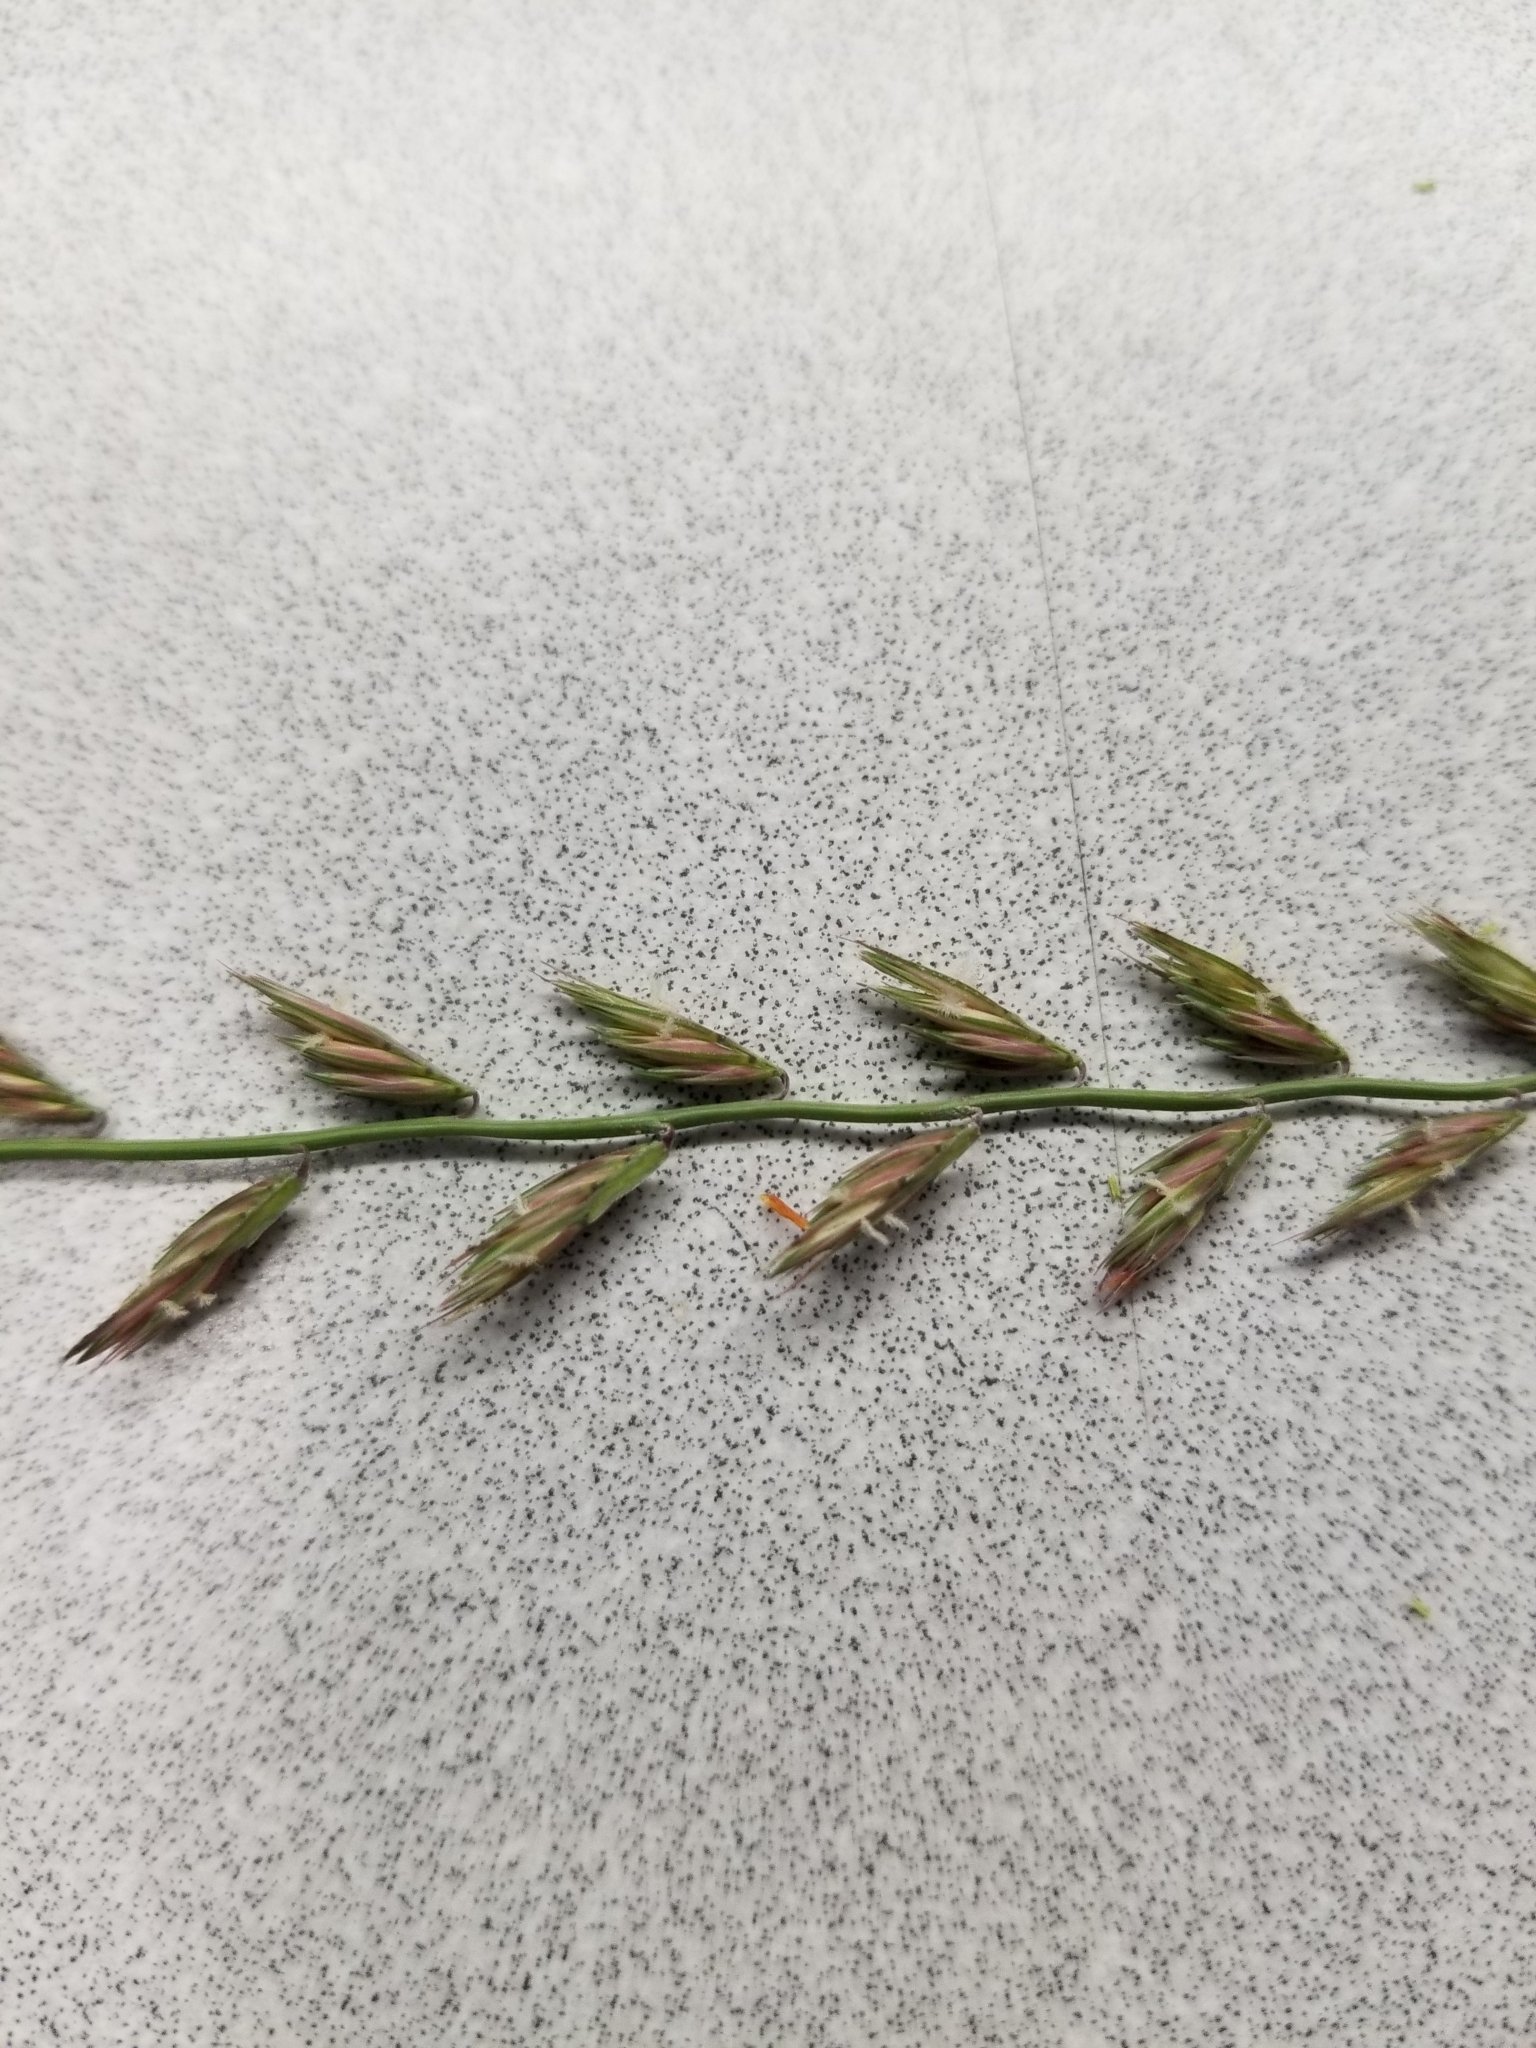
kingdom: Plantae
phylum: Tracheophyta
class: Liliopsida
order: Poales
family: Poaceae
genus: Bouteloua
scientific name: Bouteloua curtipendula
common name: Side-oats grama
